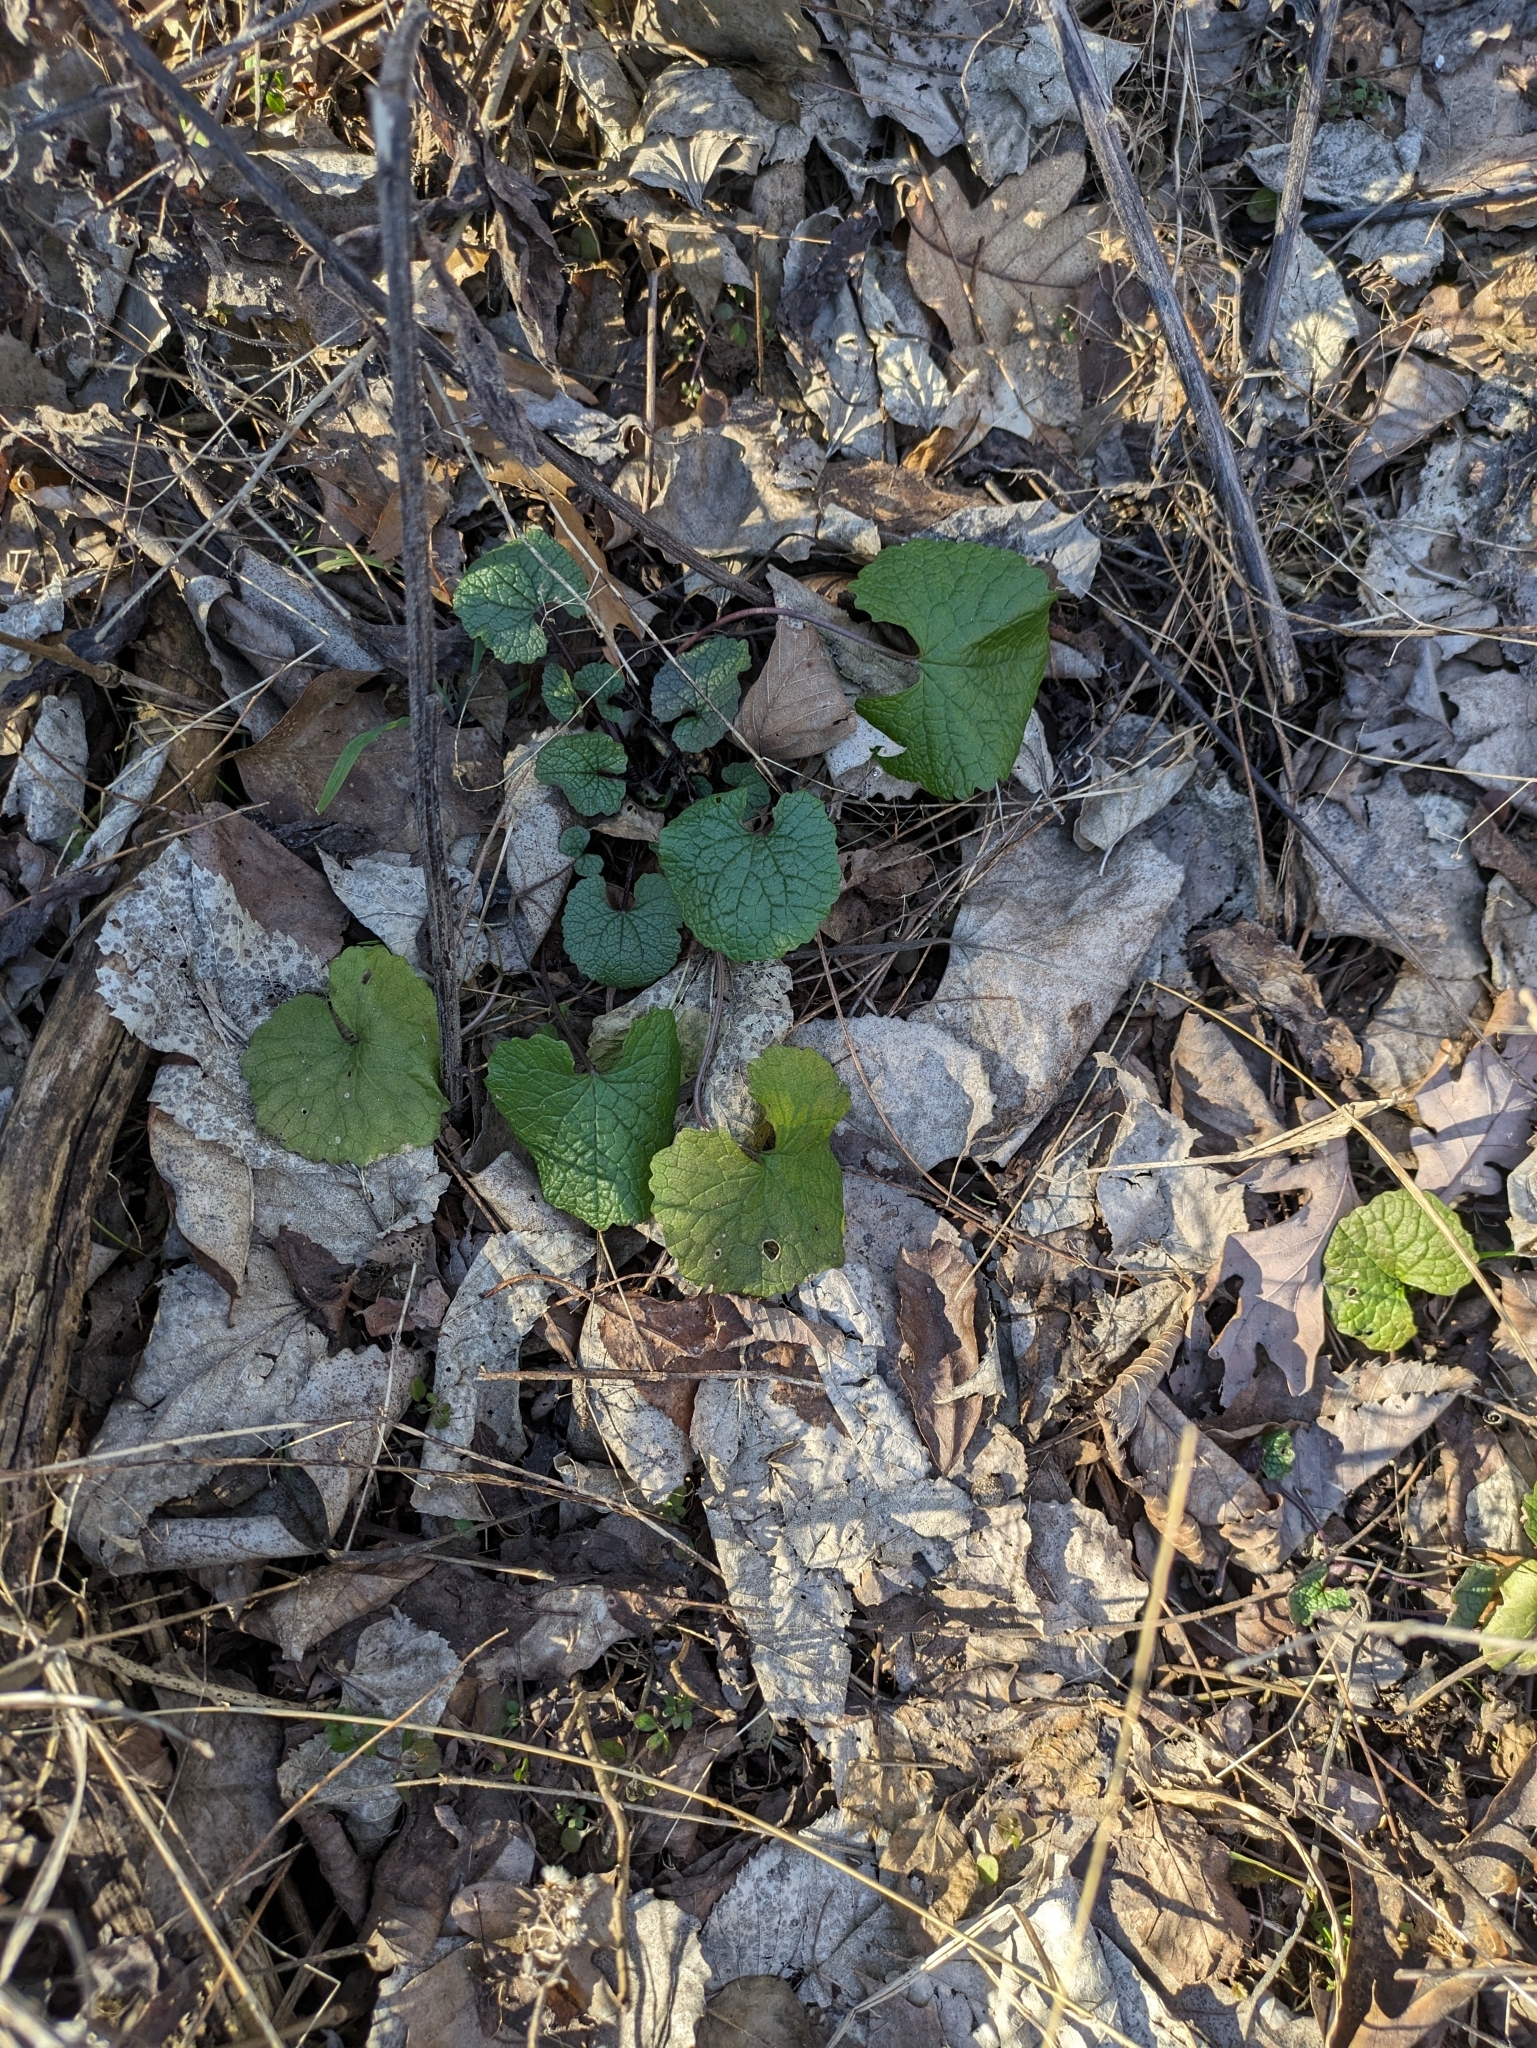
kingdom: Plantae
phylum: Tracheophyta
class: Magnoliopsida
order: Brassicales
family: Brassicaceae
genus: Alliaria
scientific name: Alliaria petiolata
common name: Garlic mustard
